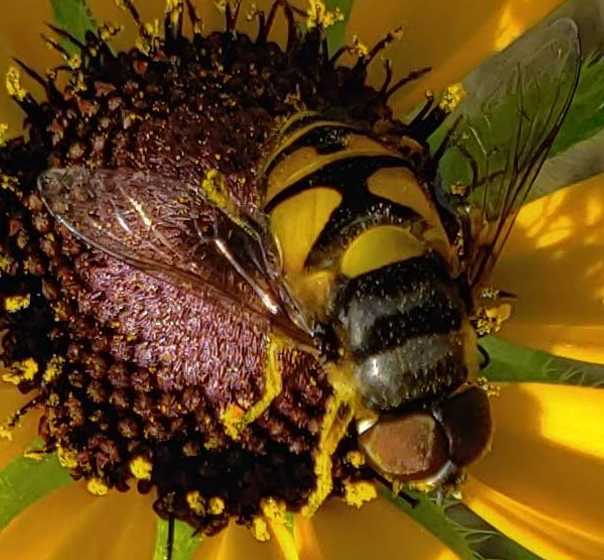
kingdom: Animalia
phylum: Arthropoda
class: Insecta
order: Diptera
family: Syrphidae
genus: Eristalis
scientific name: Eristalis transversa
